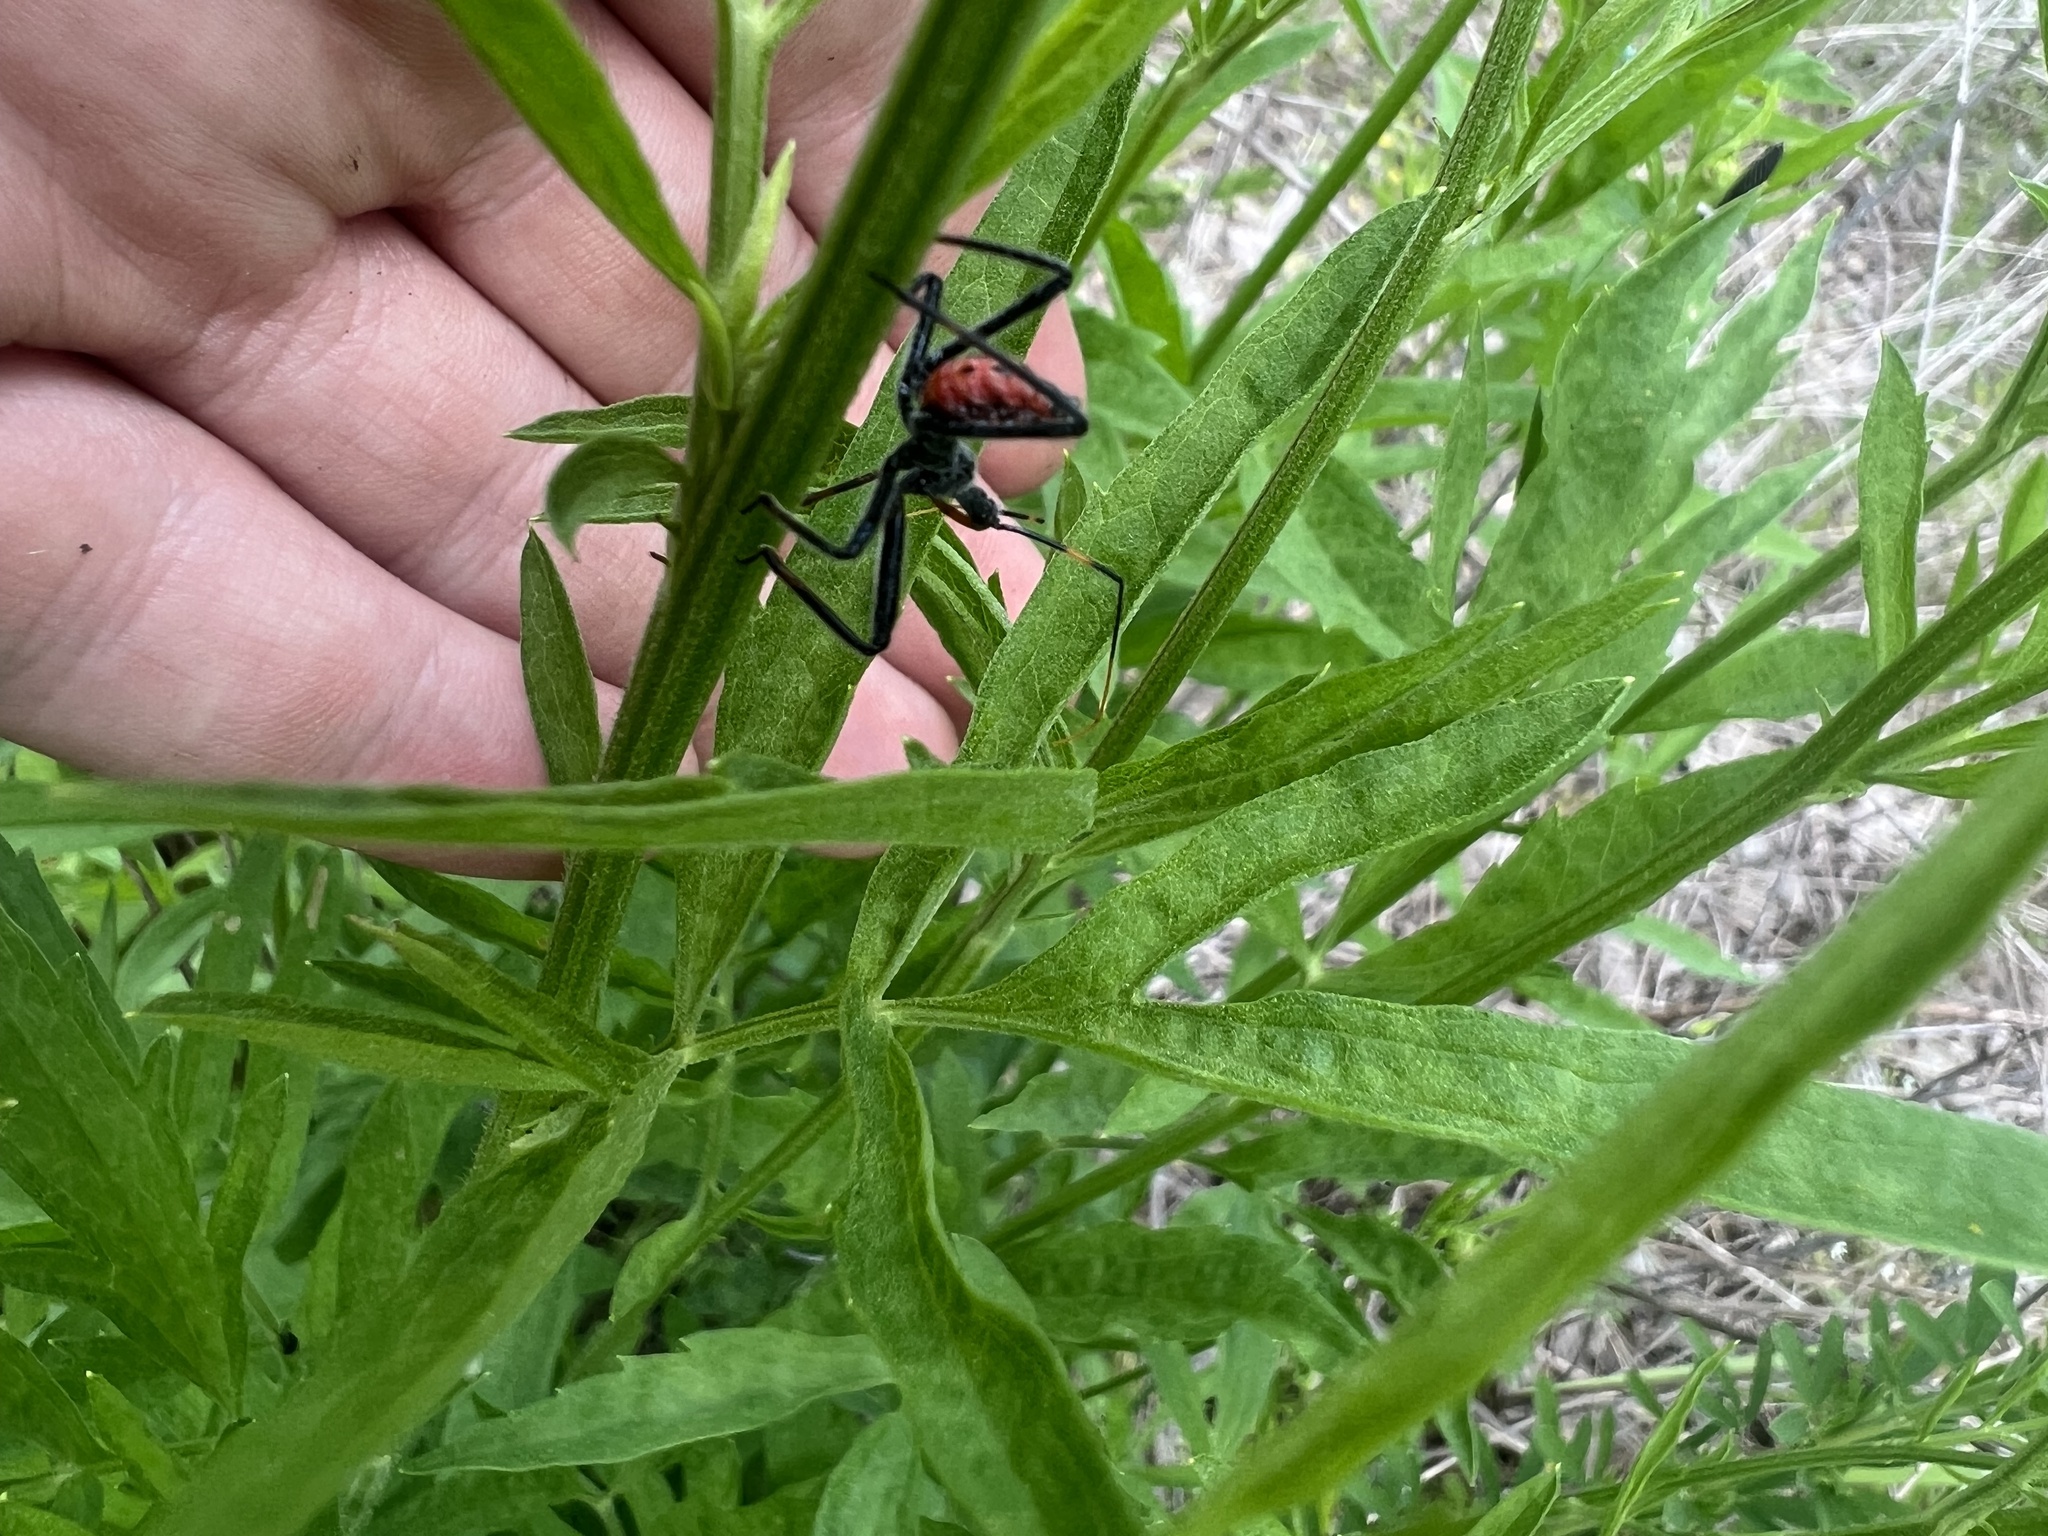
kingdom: Animalia
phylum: Arthropoda
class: Insecta
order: Hemiptera
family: Reduviidae
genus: Arilus
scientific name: Arilus cristatus
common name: North american wheel bug
